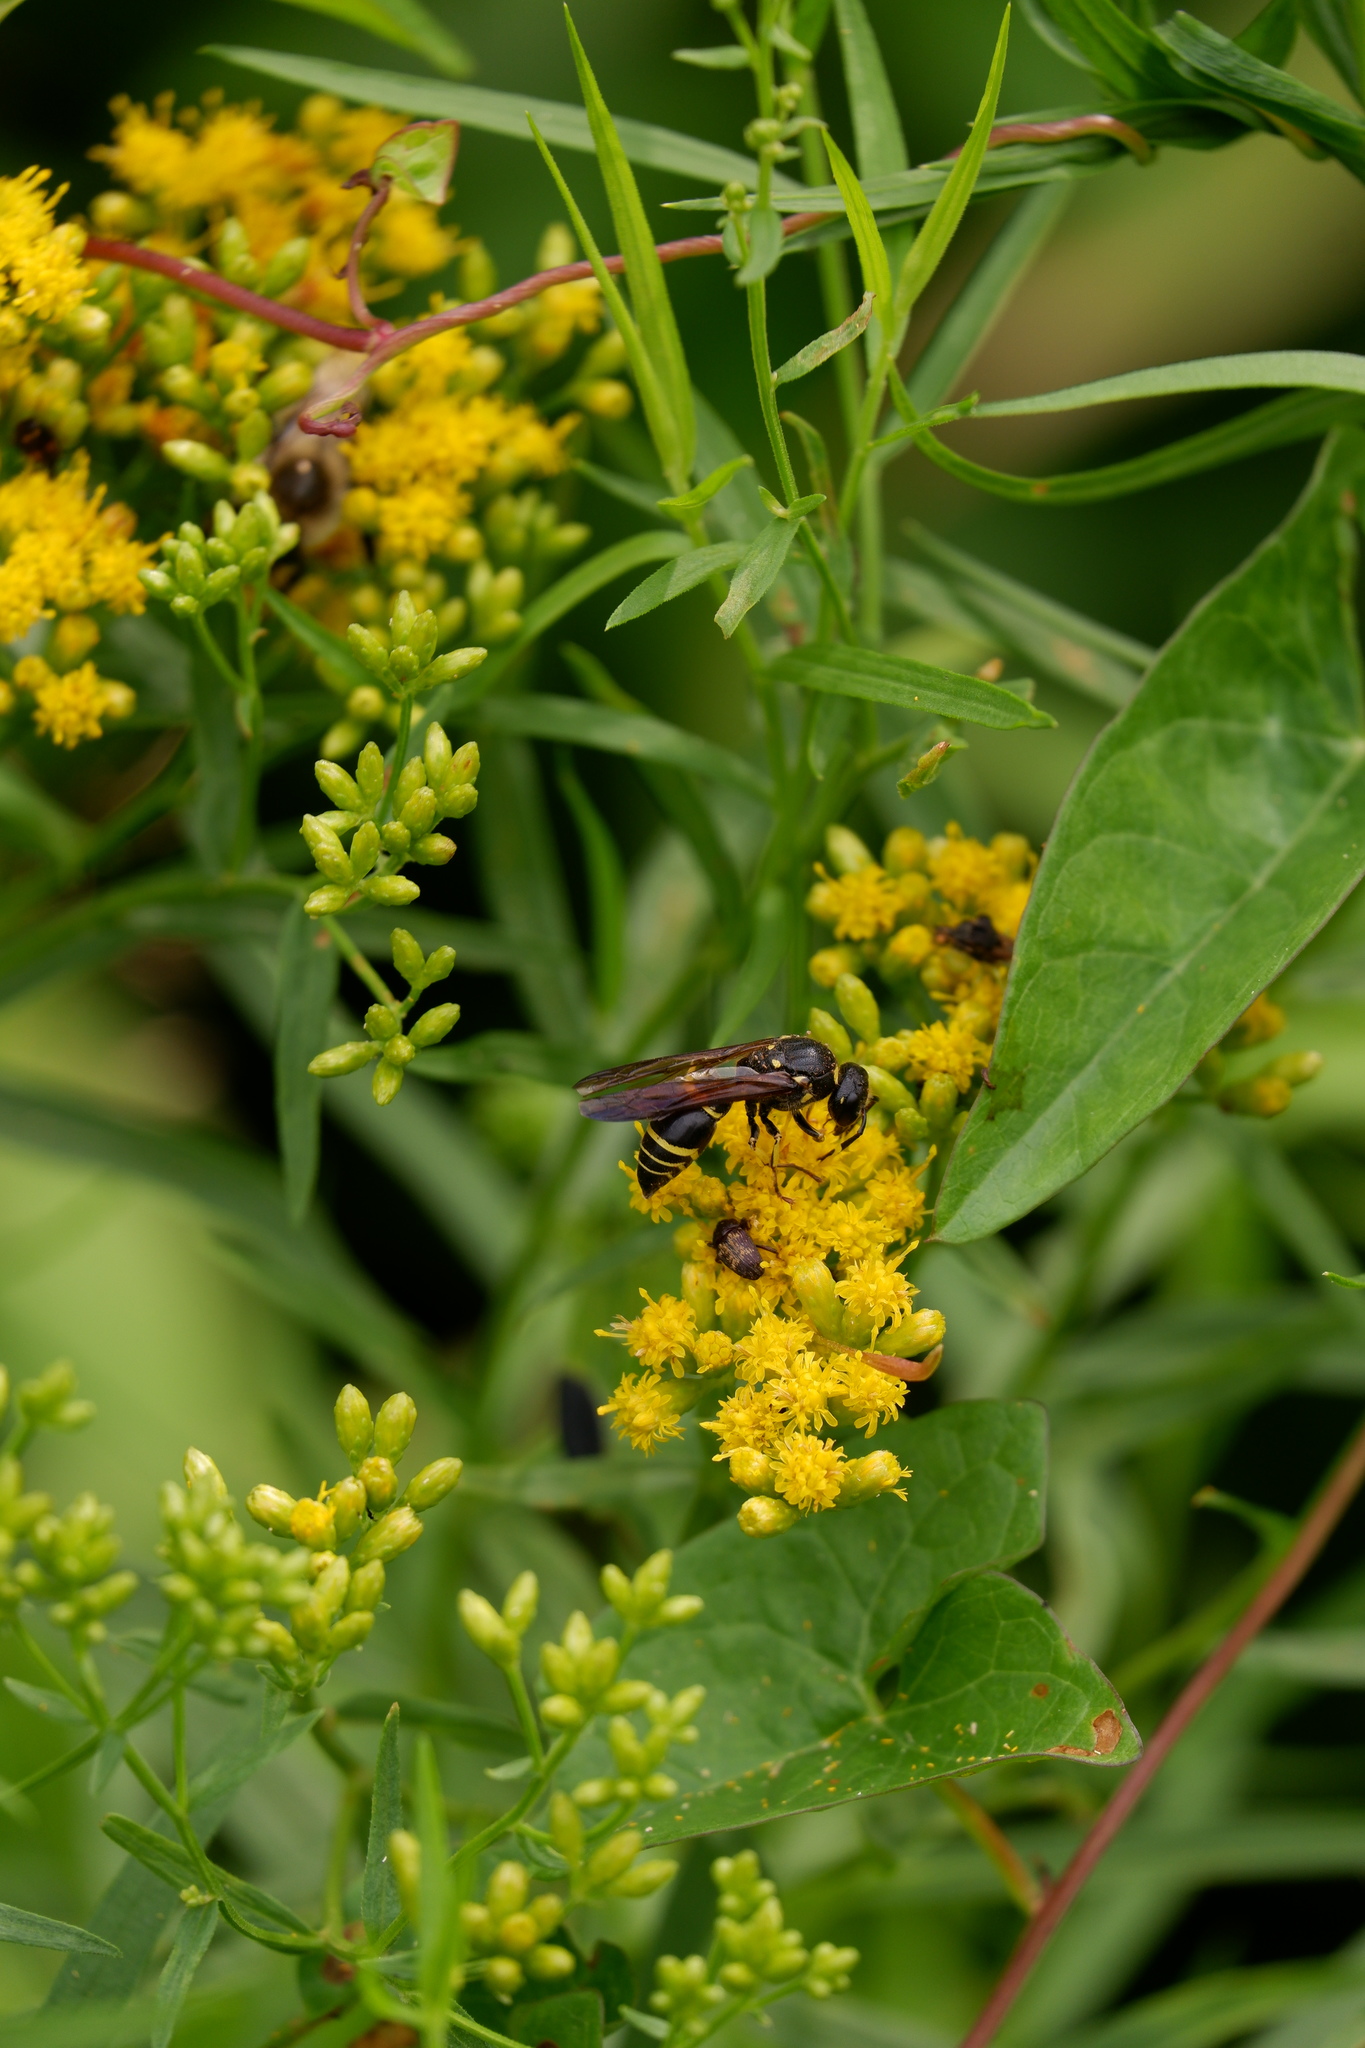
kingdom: Animalia
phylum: Arthropoda
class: Insecta
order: Hymenoptera
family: Vespidae
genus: Ancistrocerus
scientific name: Ancistrocerus
